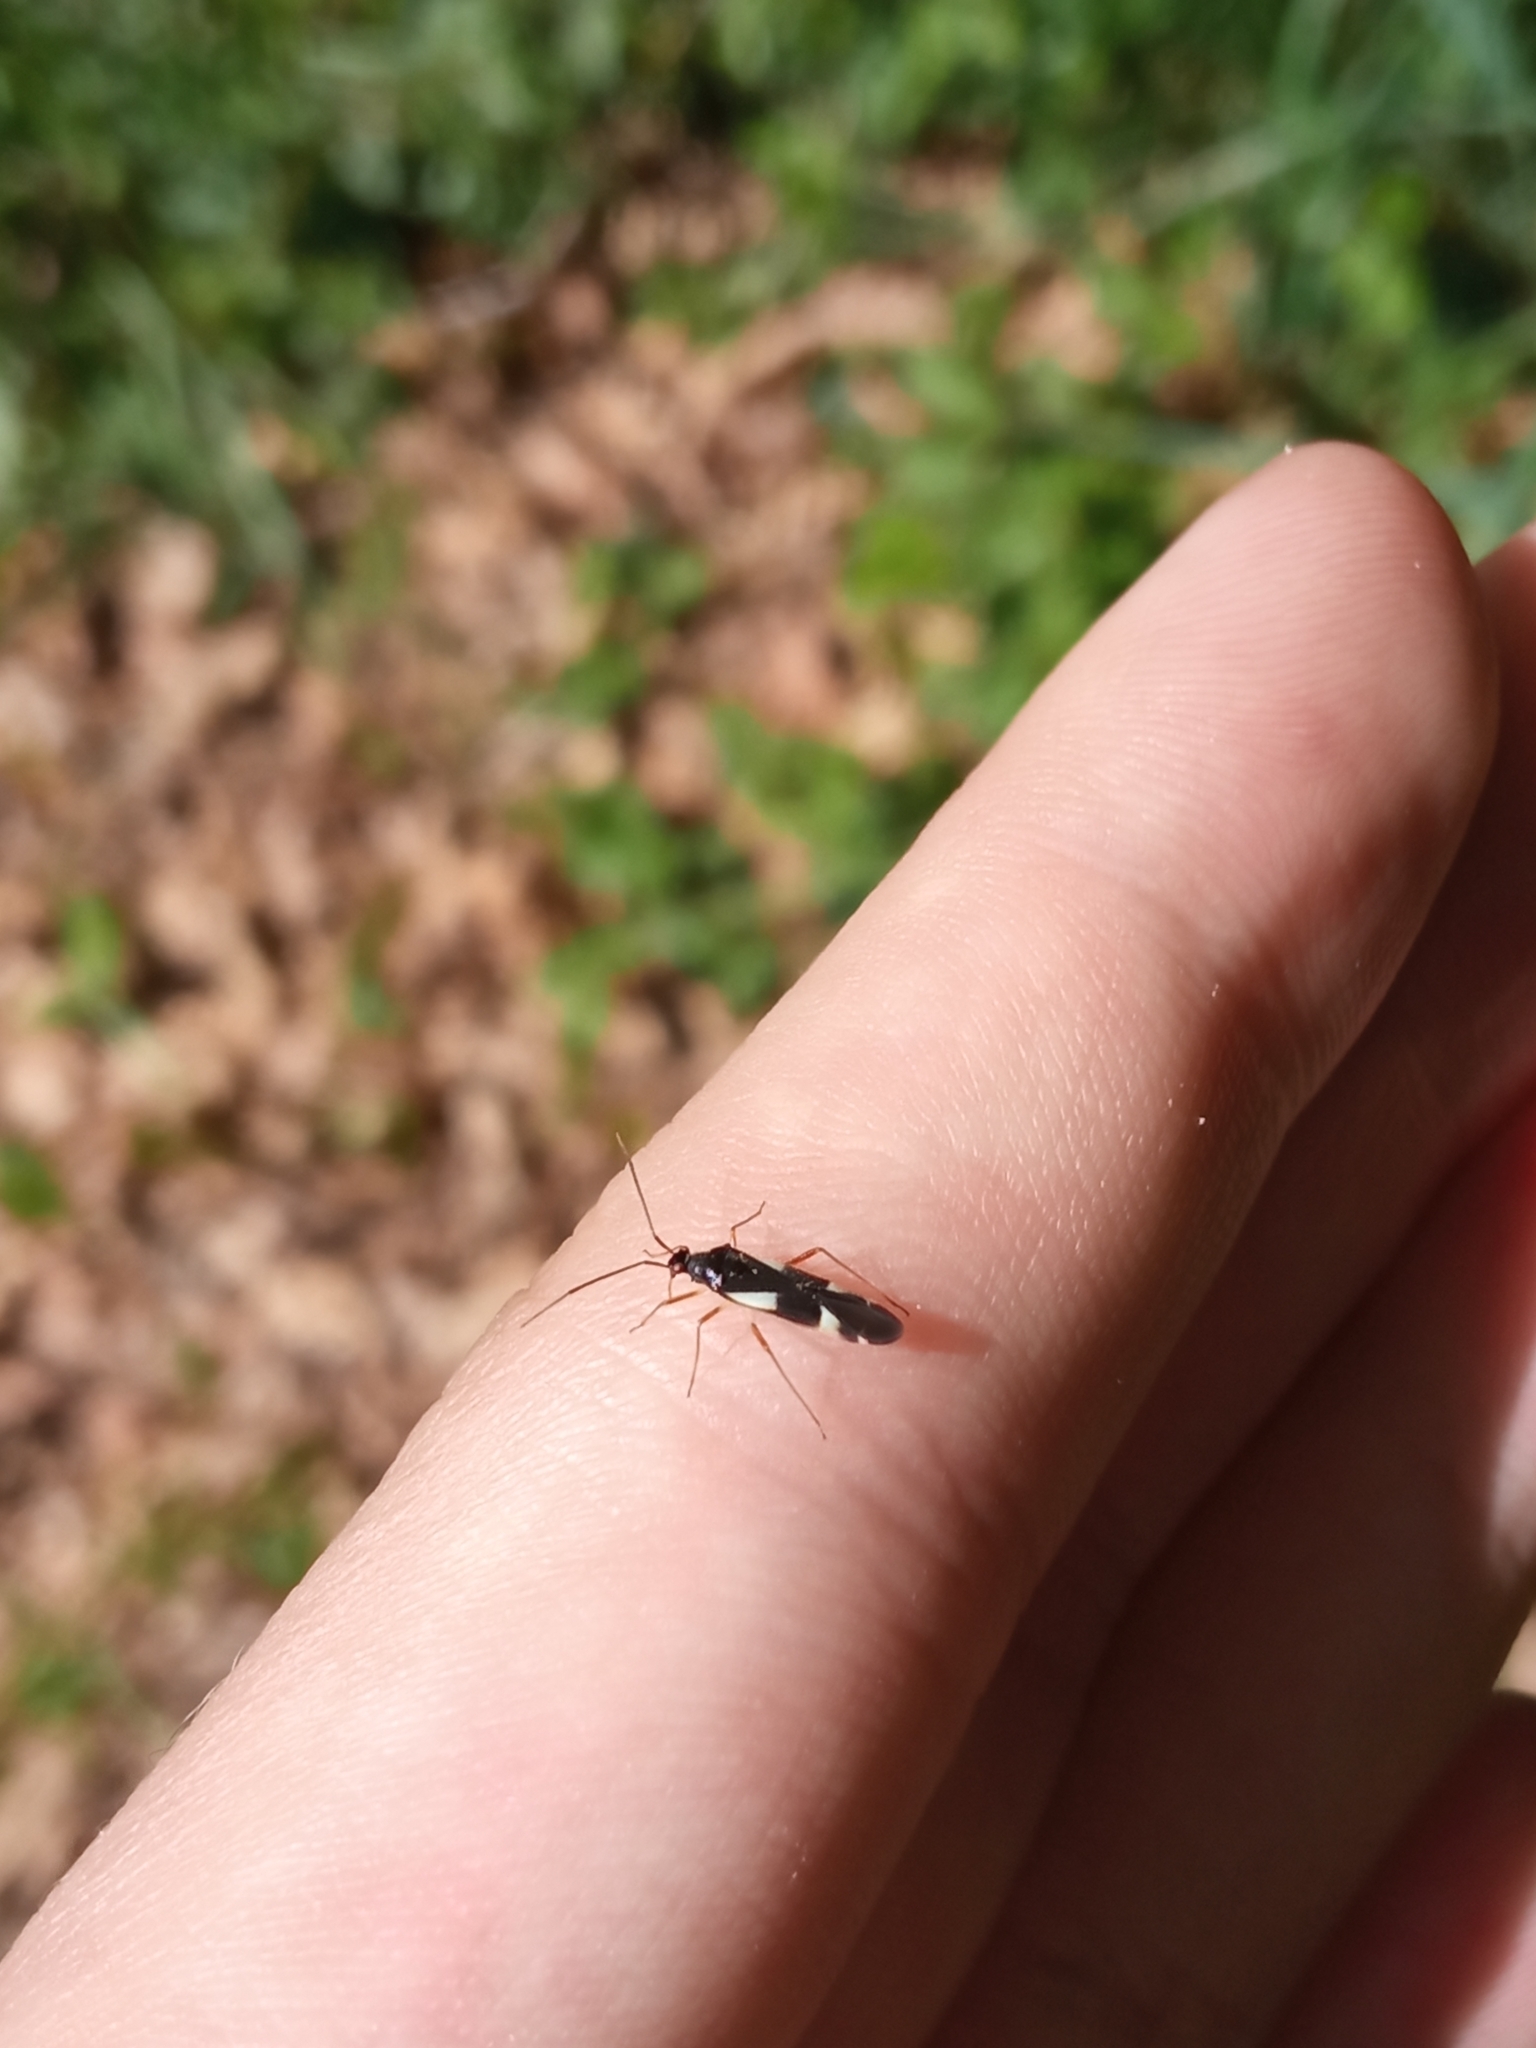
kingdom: Animalia
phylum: Arthropoda
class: Insecta
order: Hemiptera
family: Miridae
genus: Dryophilocoris
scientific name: Dryophilocoris flavoquadrimaculatus
